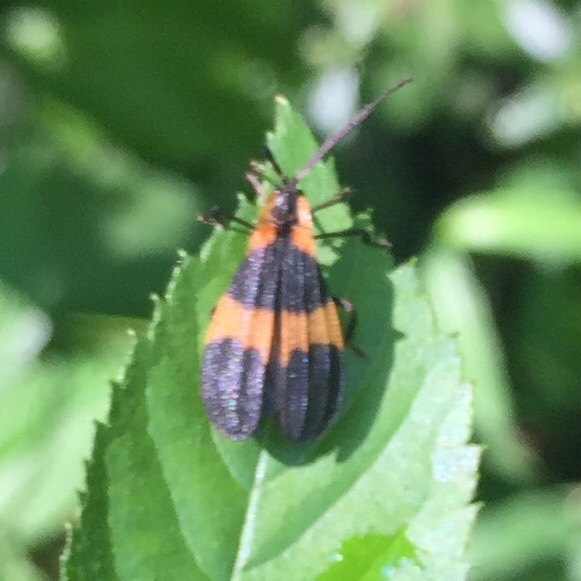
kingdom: Animalia
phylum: Arthropoda
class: Insecta
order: Coleoptera
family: Lycidae
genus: Calopteron
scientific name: Calopteron reticulatum
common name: Banded net-winged beetle
